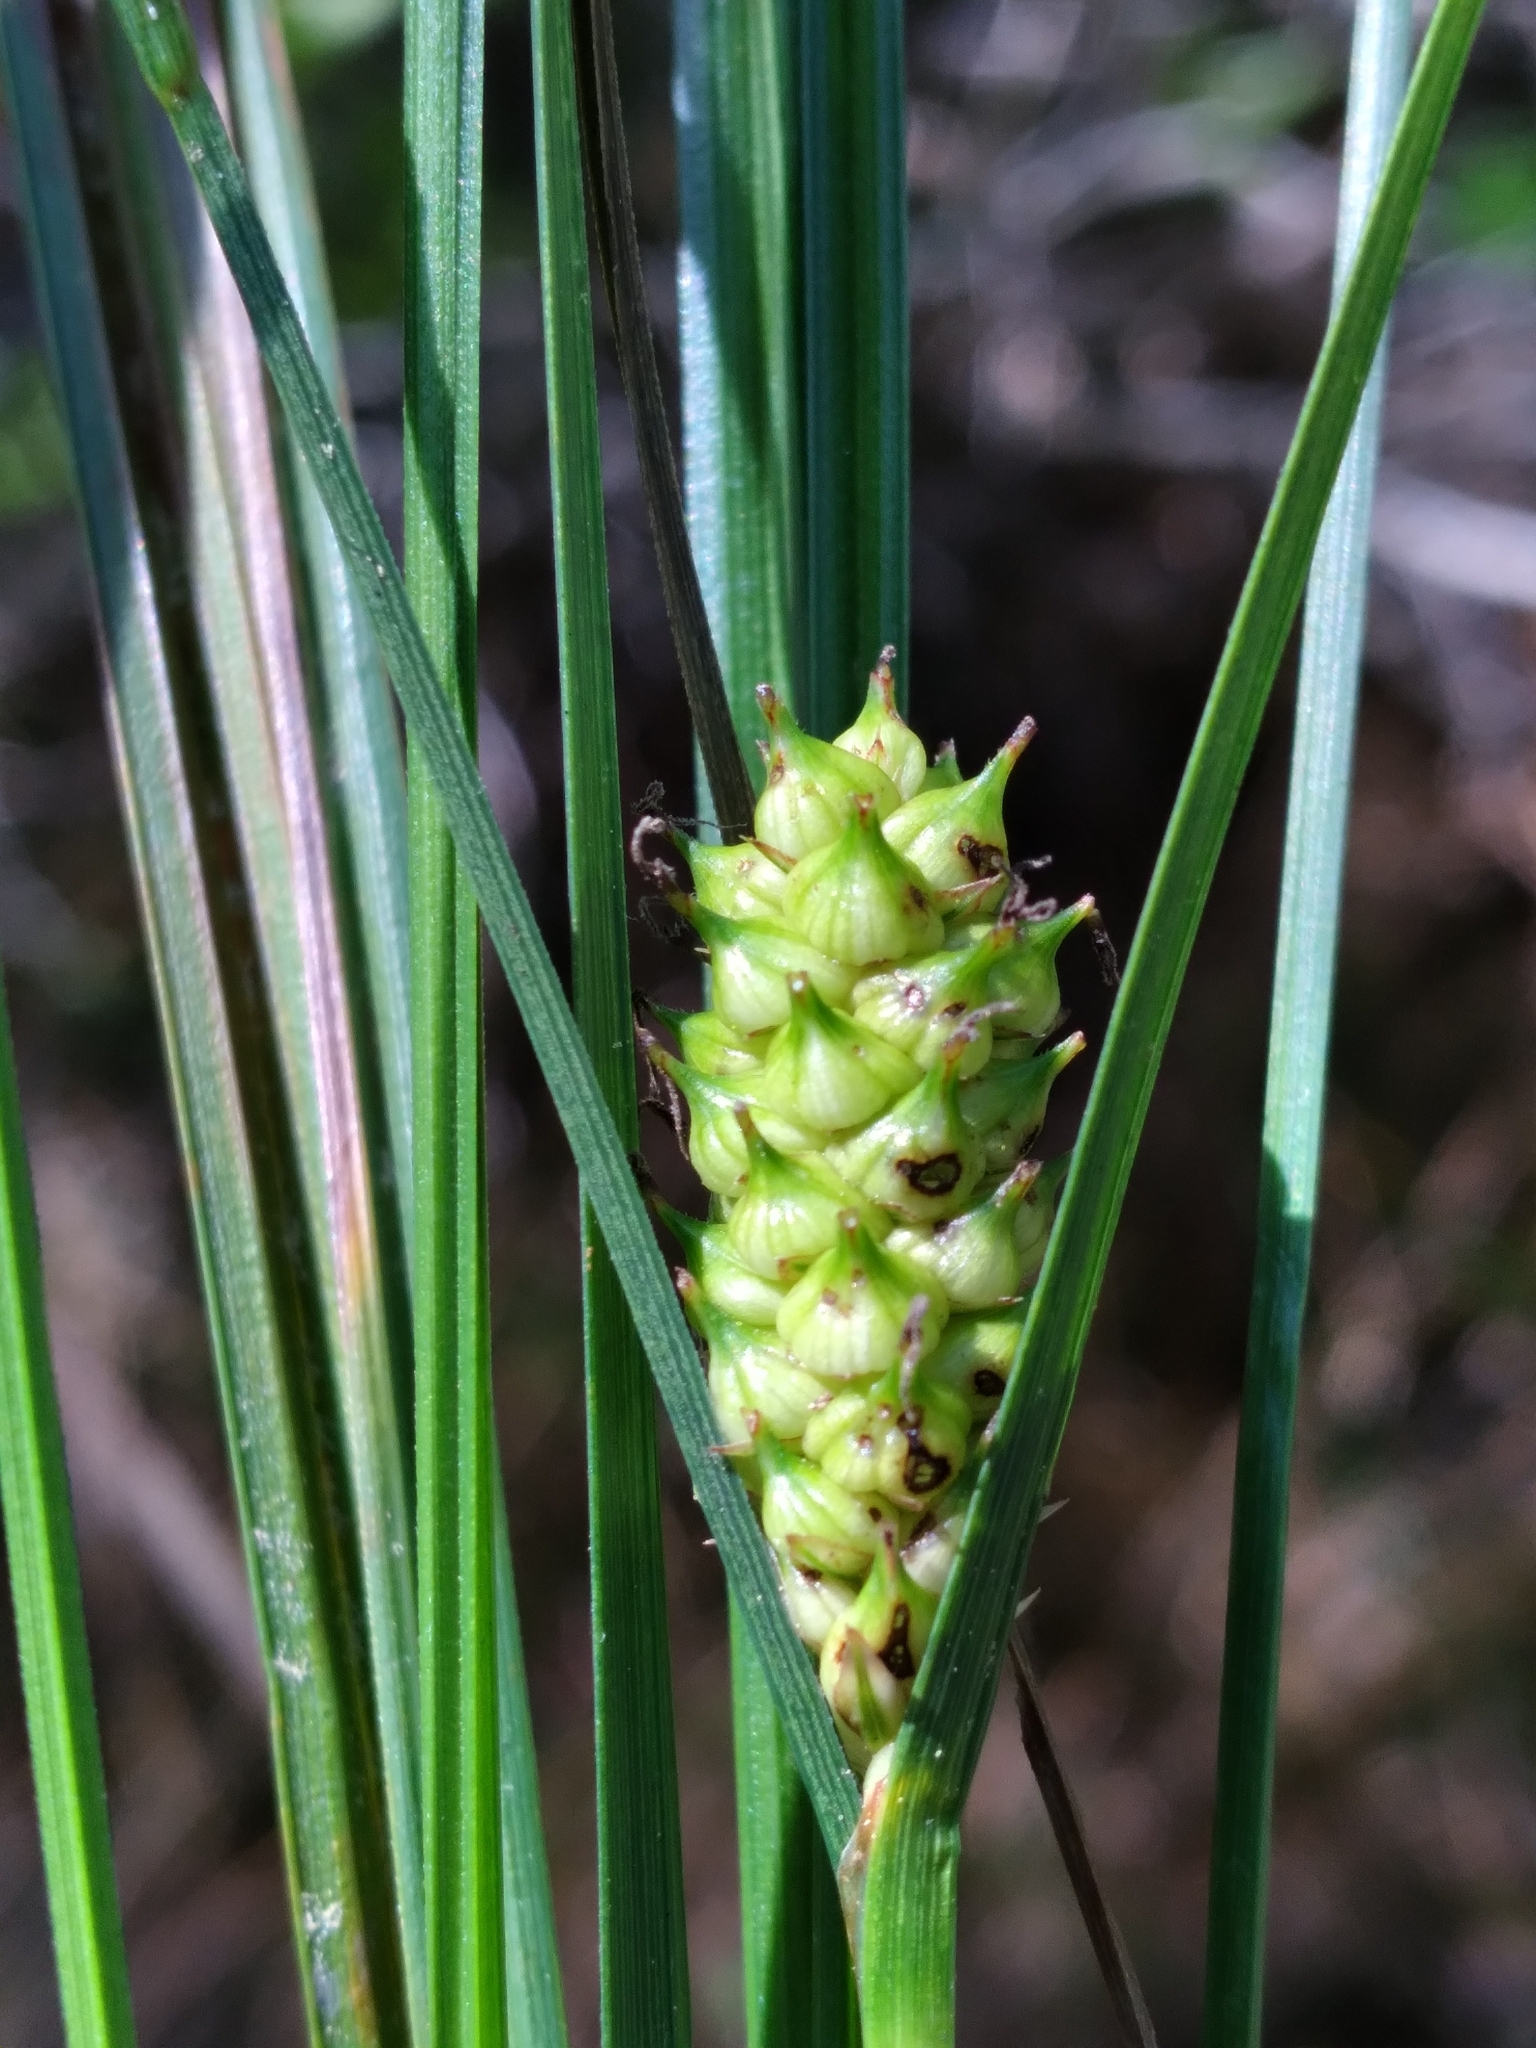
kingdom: Plantae
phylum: Tracheophyta
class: Liliopsida
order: Poales
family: Cyperaceae
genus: Carex
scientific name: Carex striata
